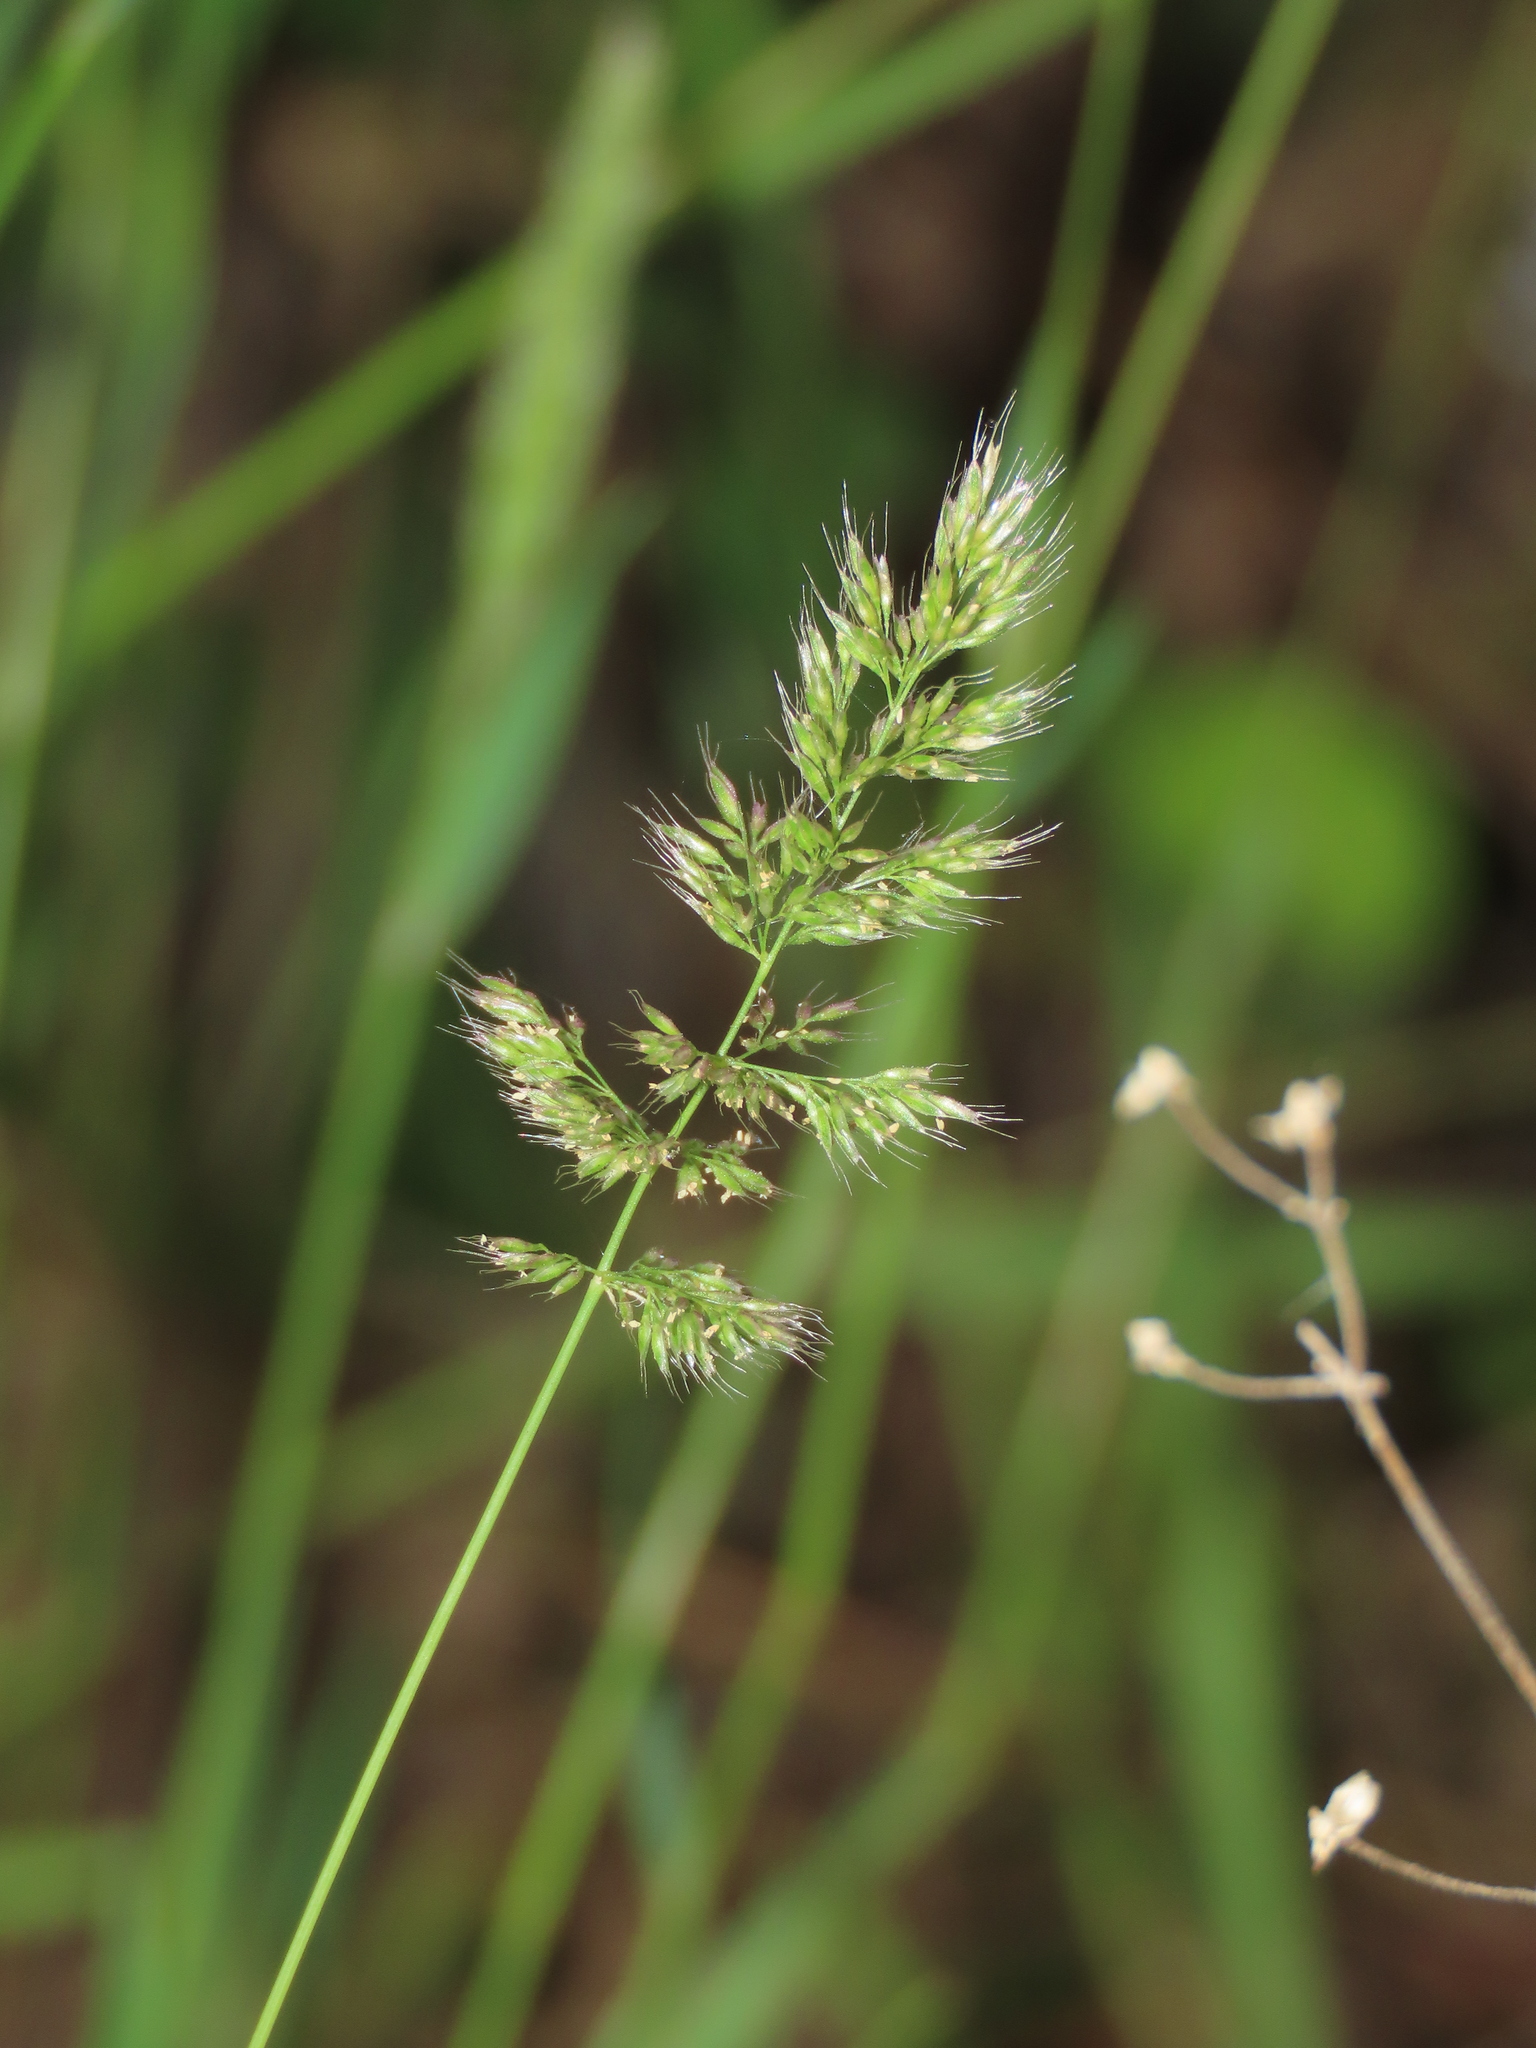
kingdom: Plantae
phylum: Tracheophyta
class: Liliopsida
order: Poales
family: Poaceae
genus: Polypogon
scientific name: Polypogon fugax
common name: Asia minor bluegrass
